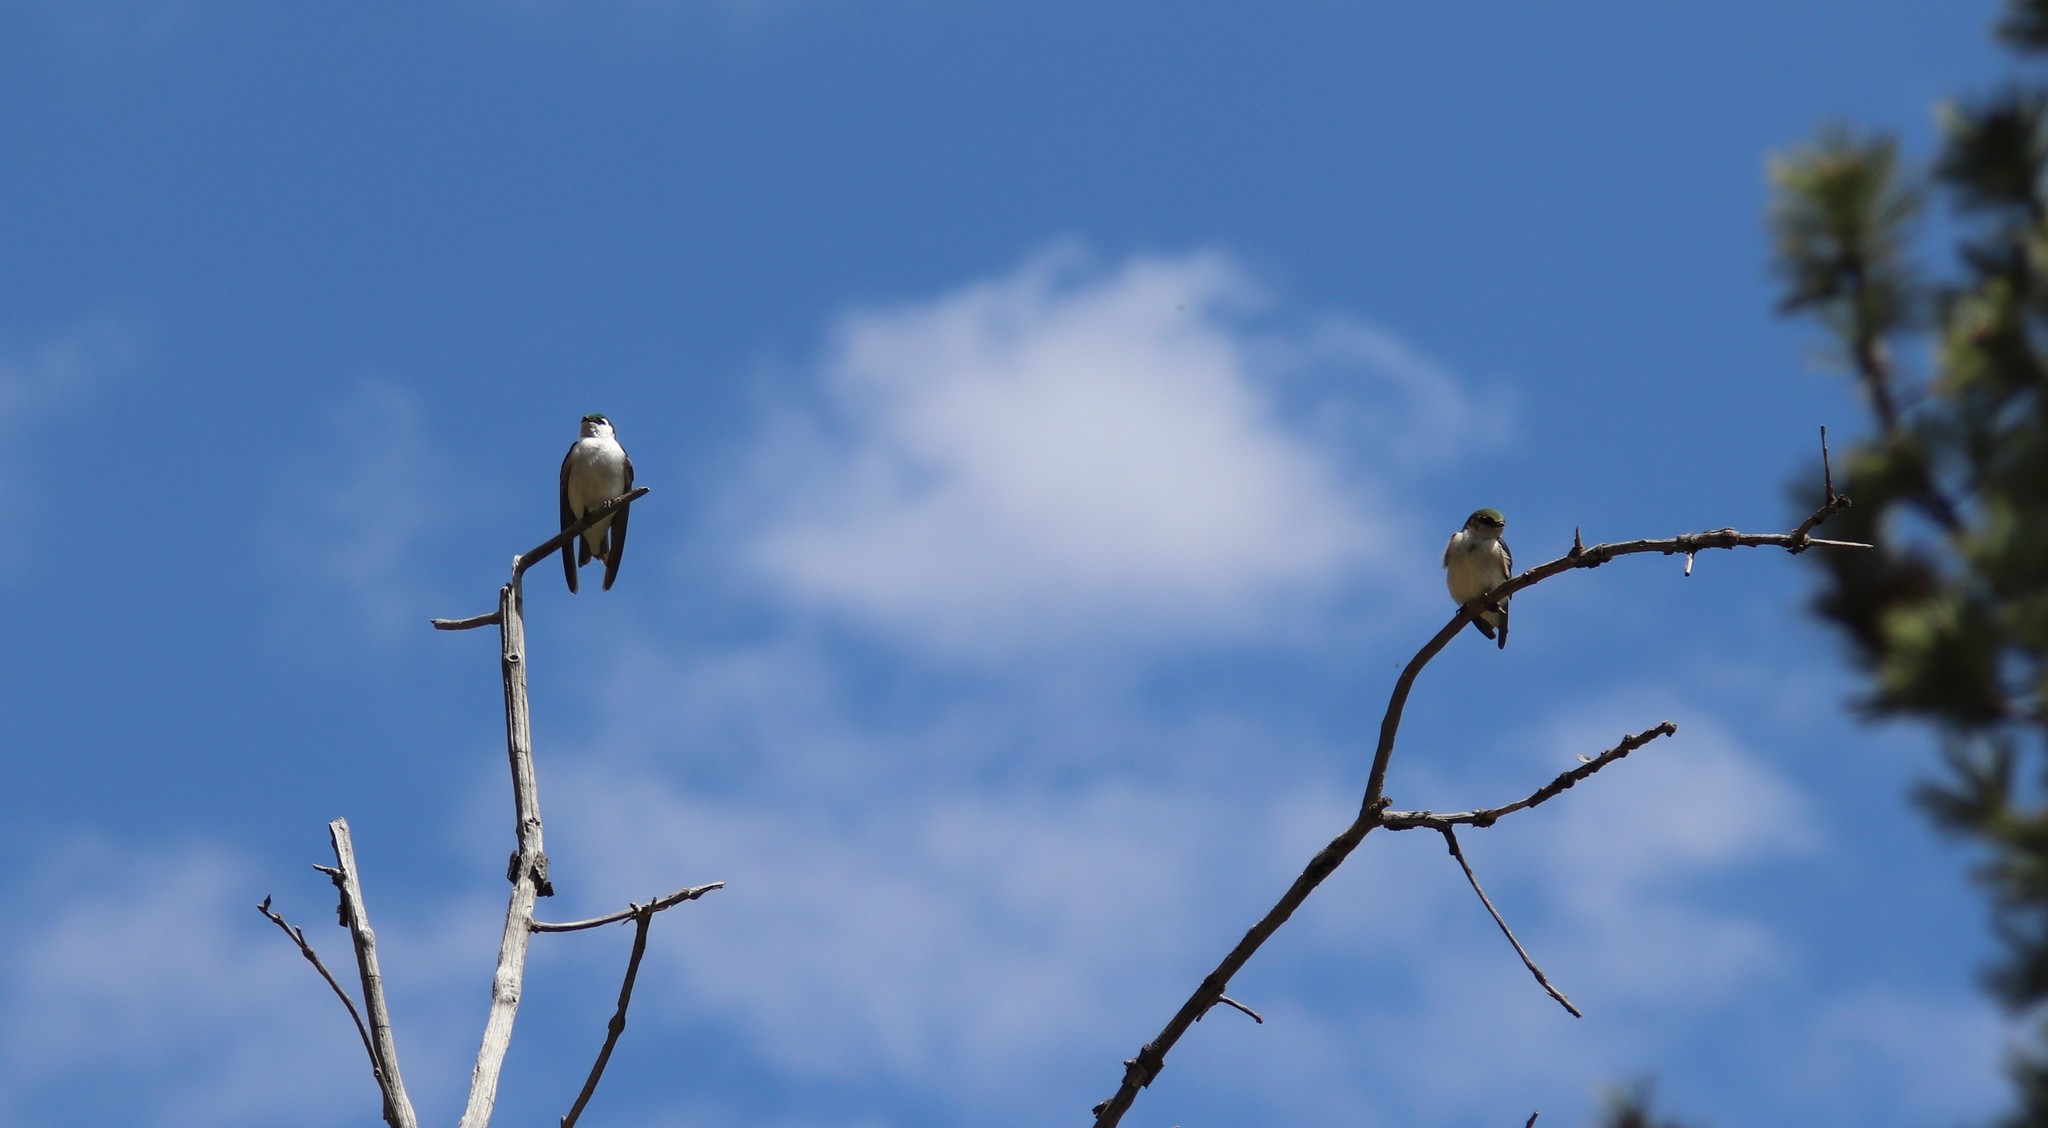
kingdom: Animalia
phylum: Chordata
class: Aves
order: Passeriformes
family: Hirundinidae
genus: Tachycineta
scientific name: Tachycineta thalassina
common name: Violet-green swallow
